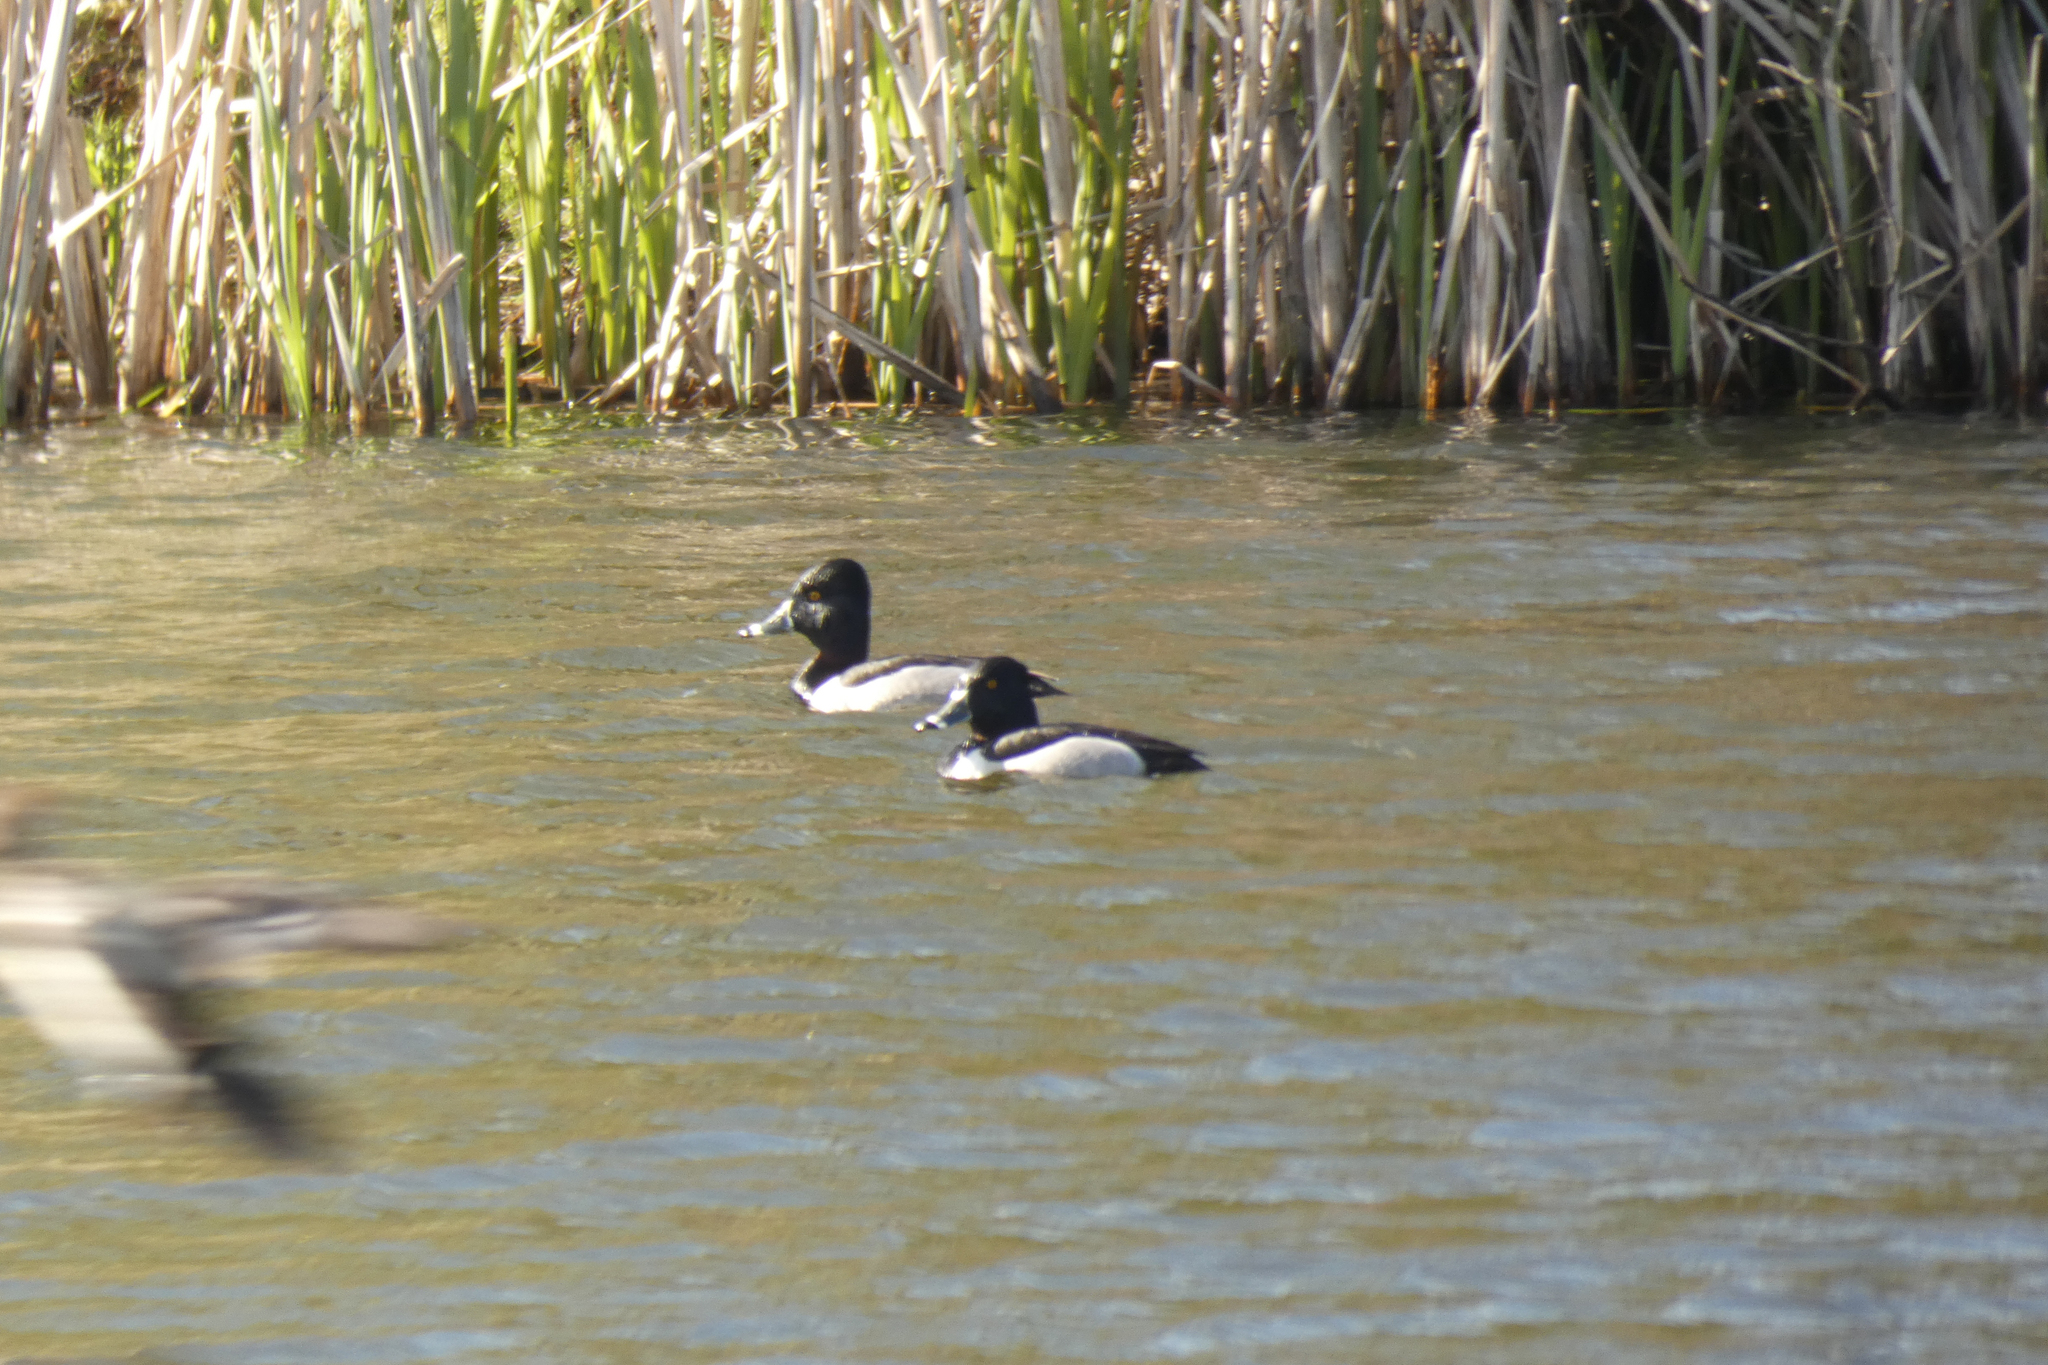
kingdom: Animalia
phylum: Chordata
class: Aves
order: Anseriformes
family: Anatidae
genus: Aythya
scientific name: Aythya collaris
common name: Ring-necked duck
